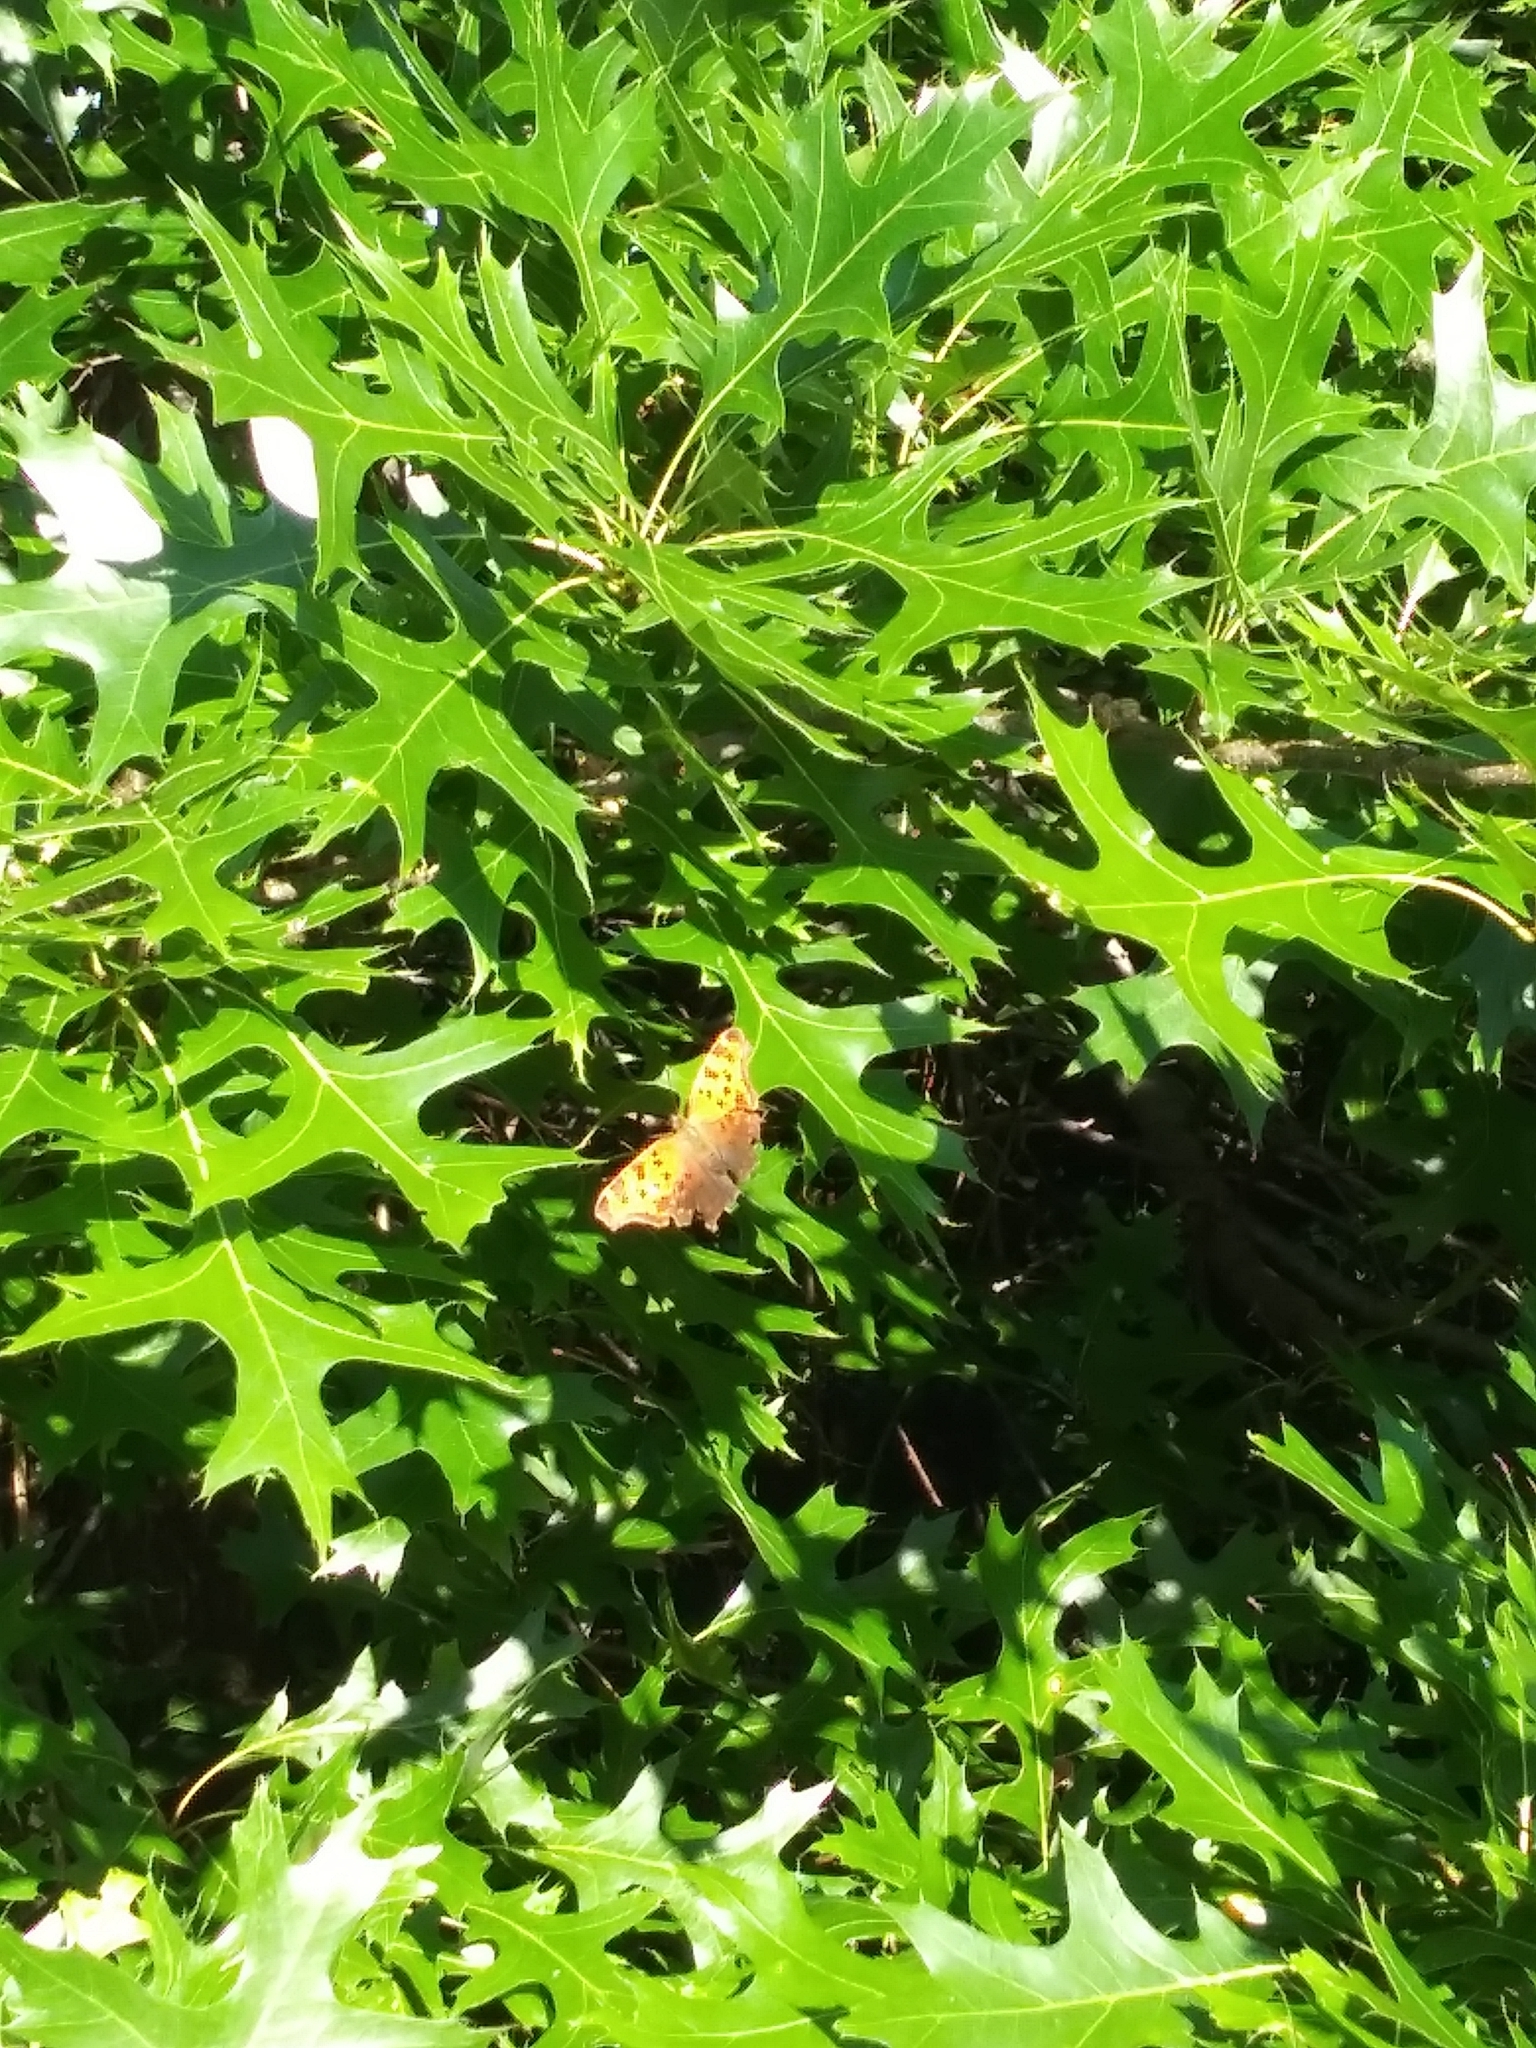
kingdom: Animalia
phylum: Arthropoda
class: Insecta
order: Lepidoptera
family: Nymphalidae
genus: Polygonia
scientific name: Polygonia
